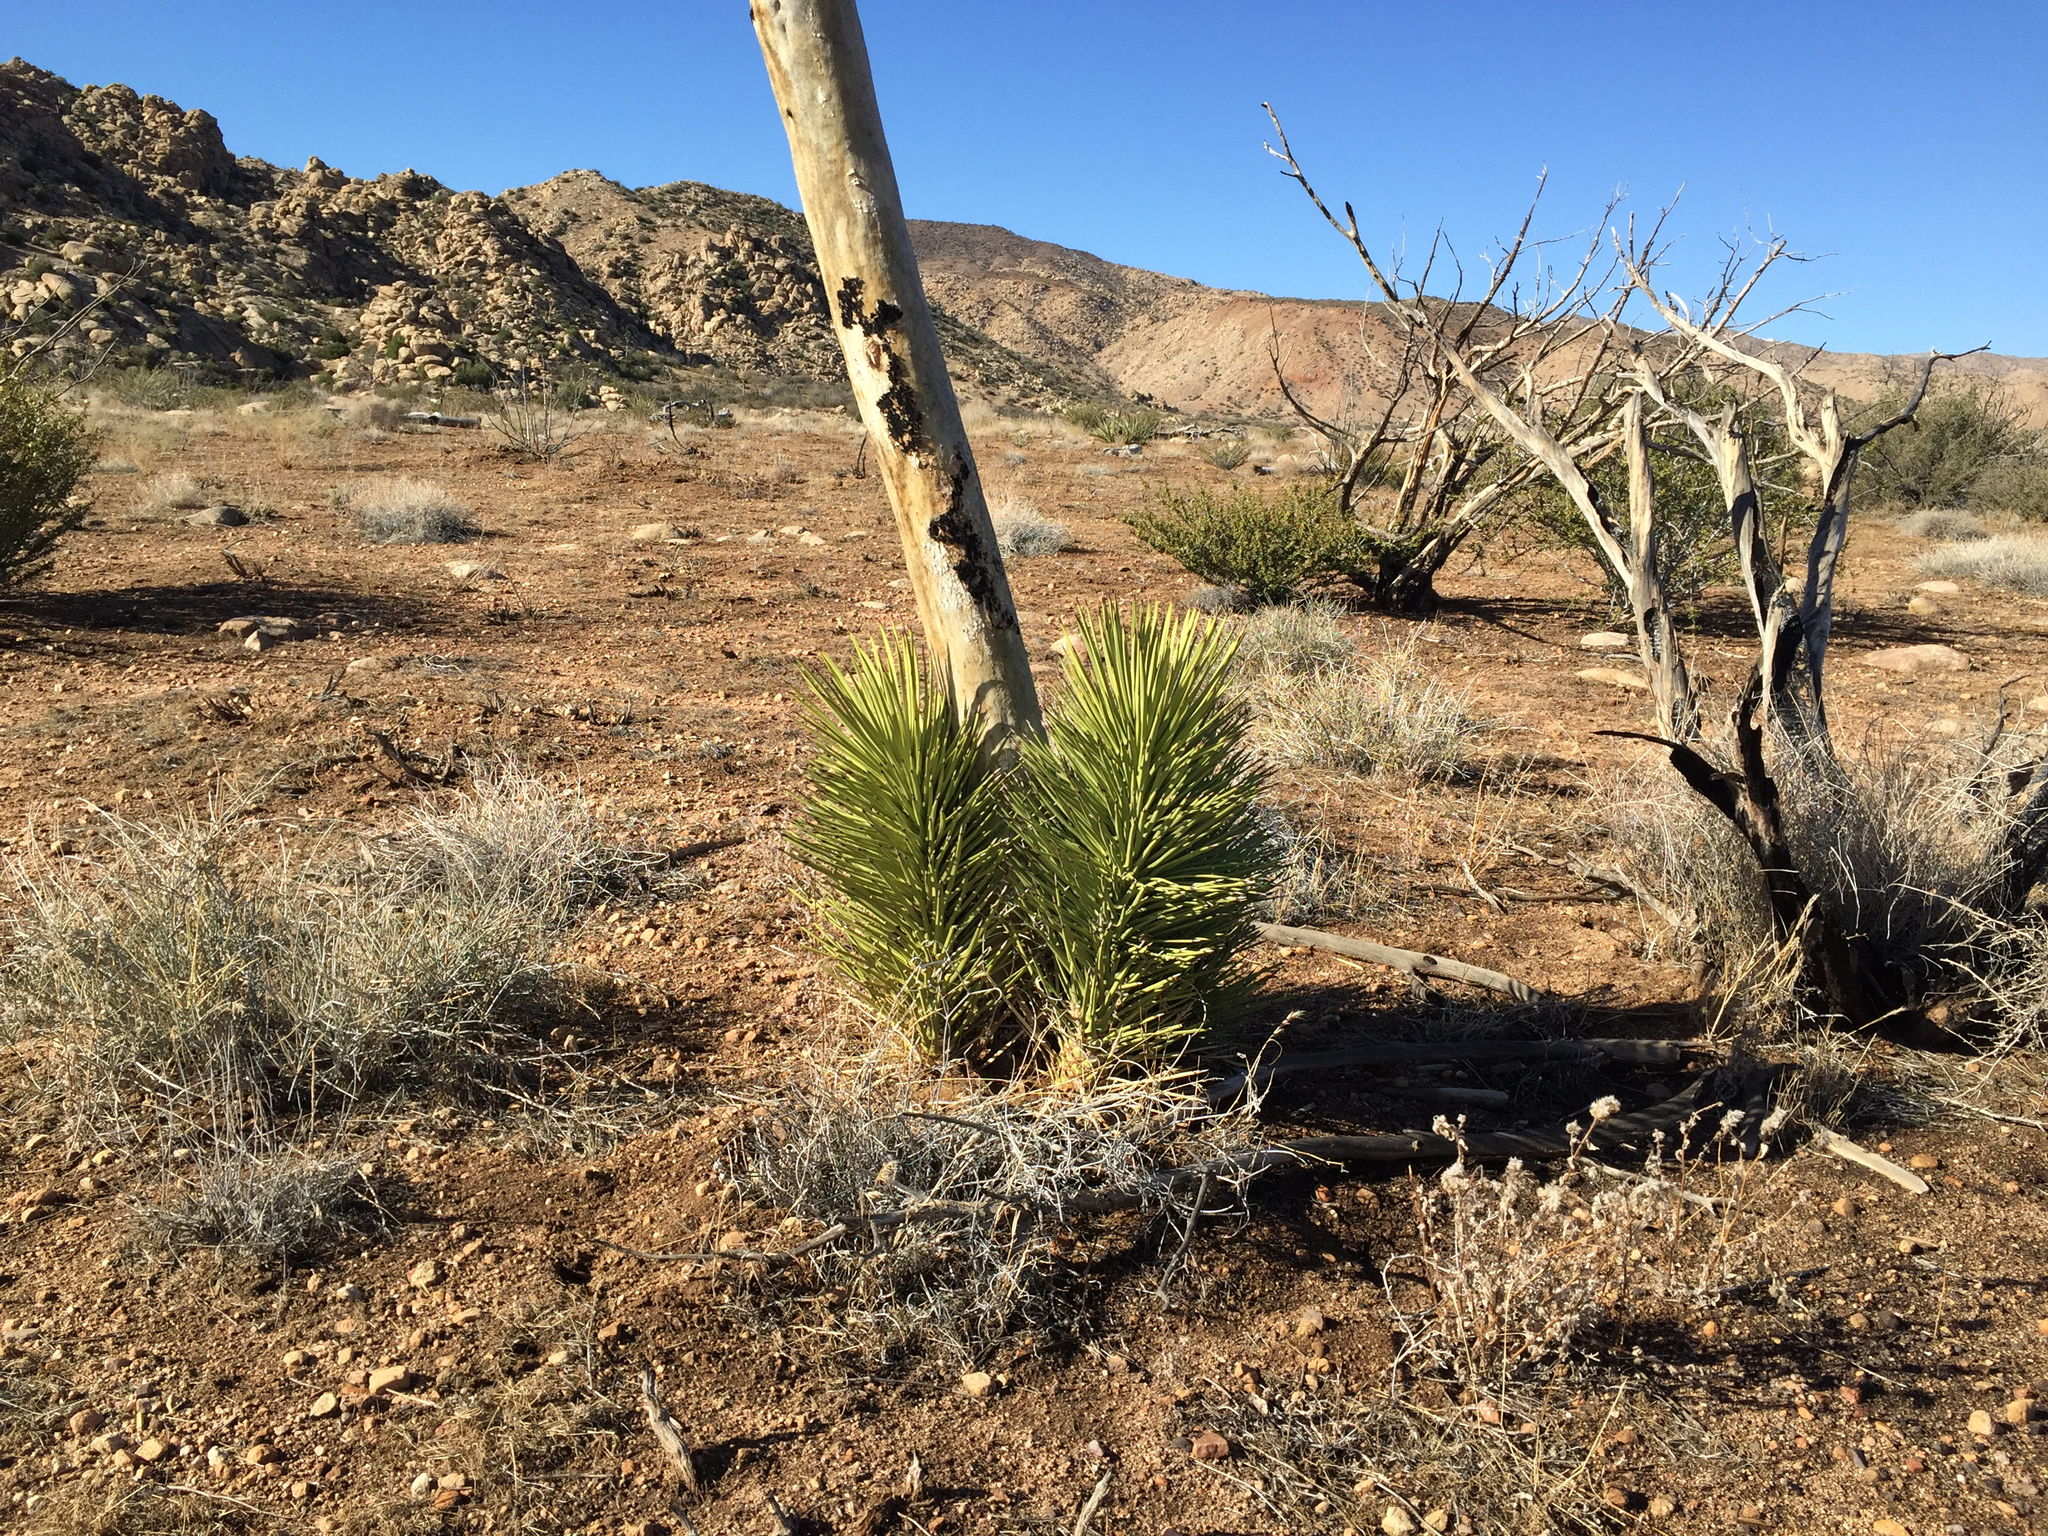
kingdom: Plantae
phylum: Tracheophyta
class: Liliopsida
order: Asparagales
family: Asparagaceae
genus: Yucca
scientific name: Yucca brevifolia
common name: Joshua tree
